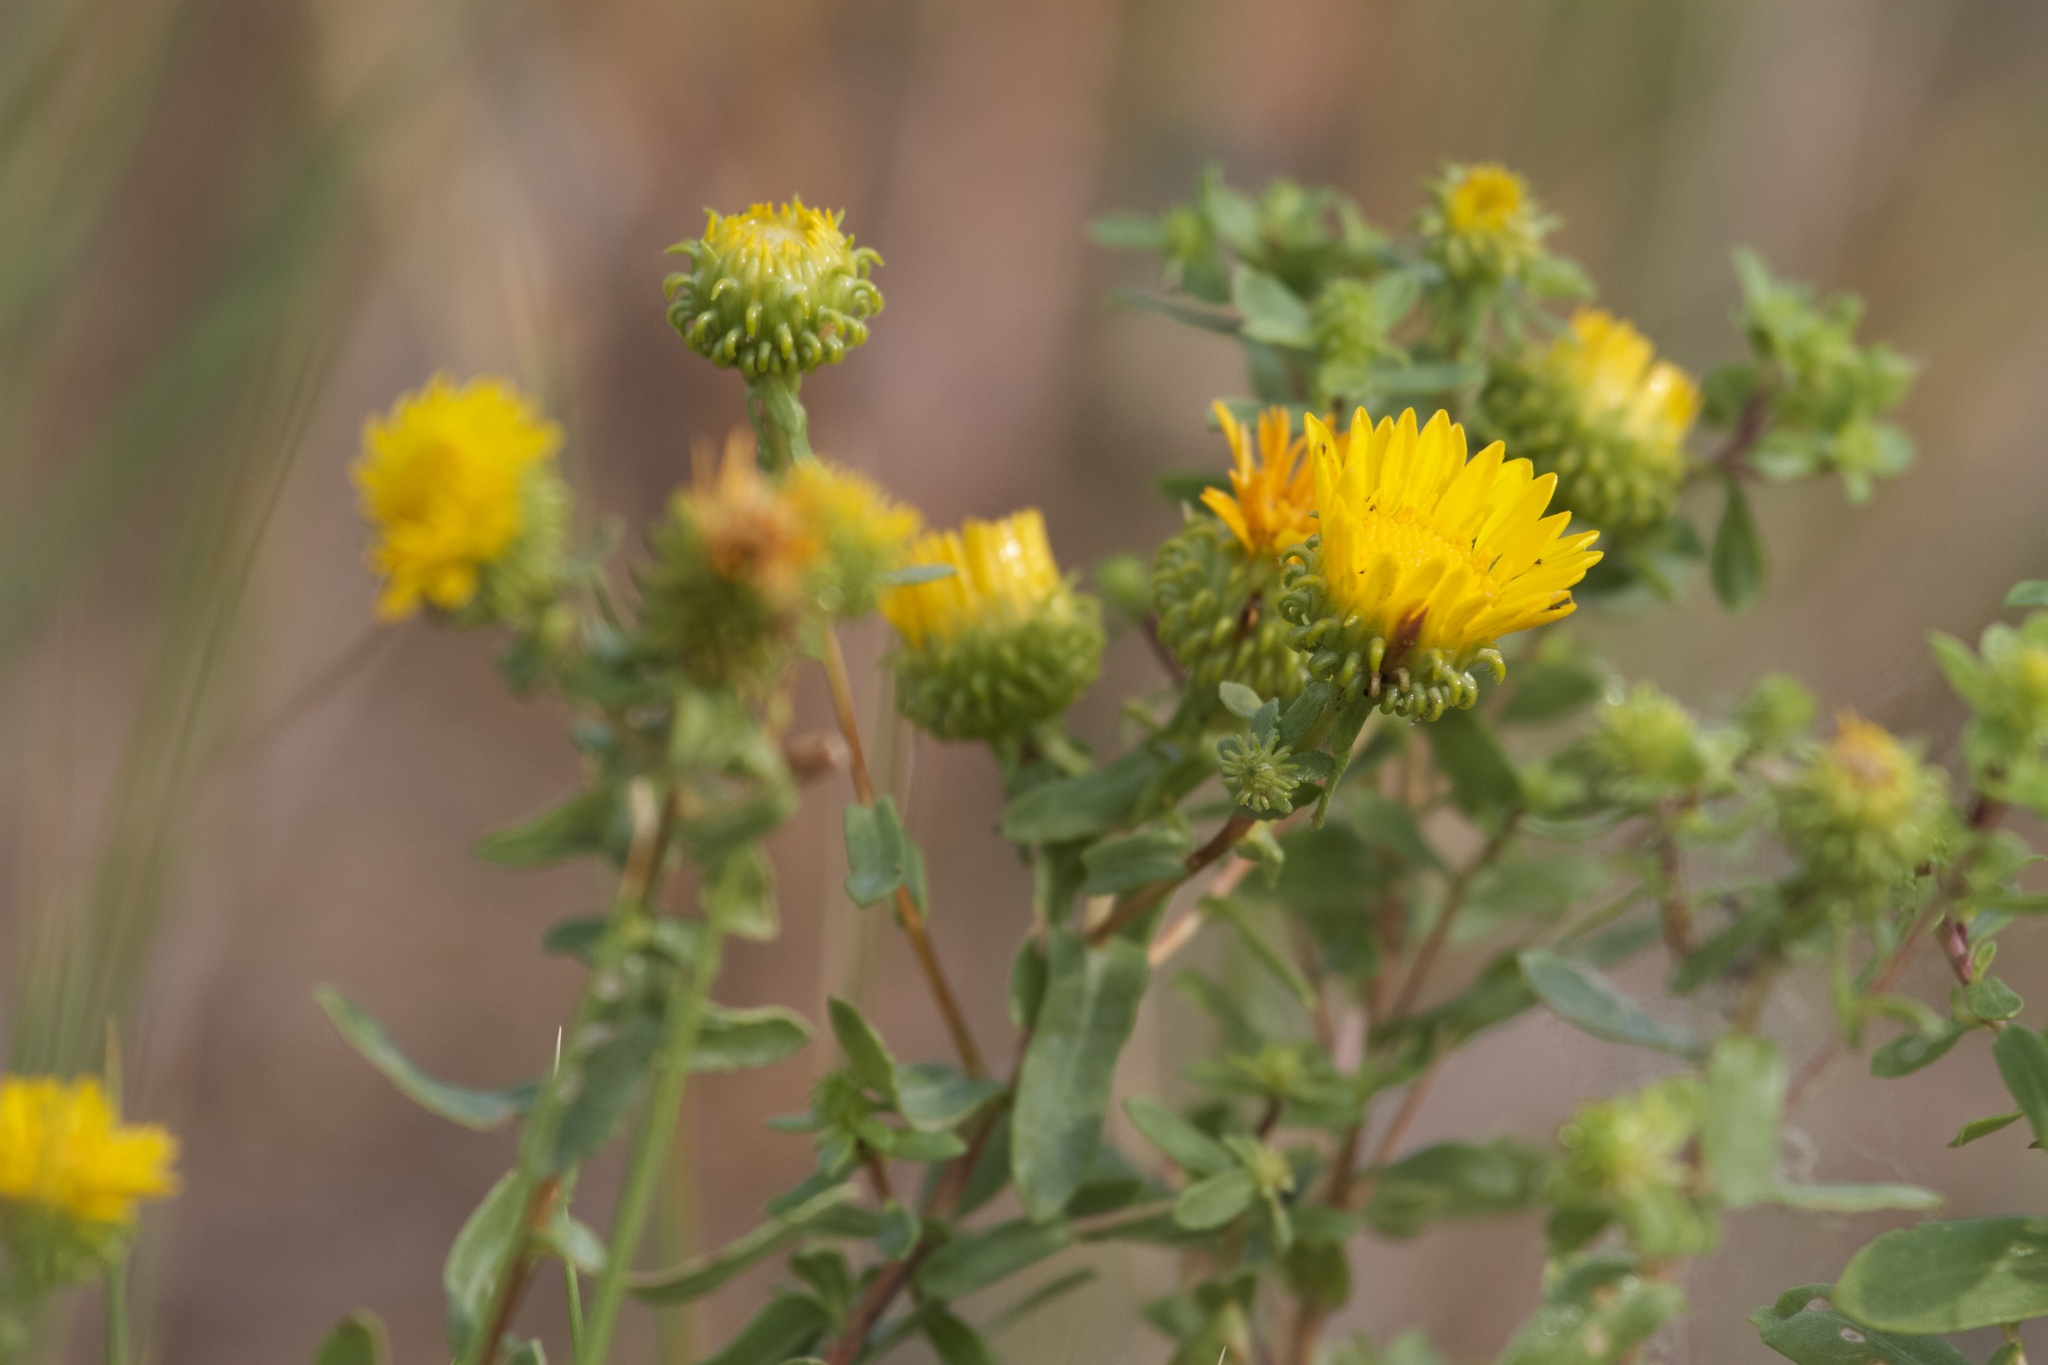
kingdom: Plantae
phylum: Tracheophyta
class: Magnoliopsida
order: Asterales
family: Asteraceae
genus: Grindelia
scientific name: Grindelia squarrosa
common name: Curly-cup gumweed
